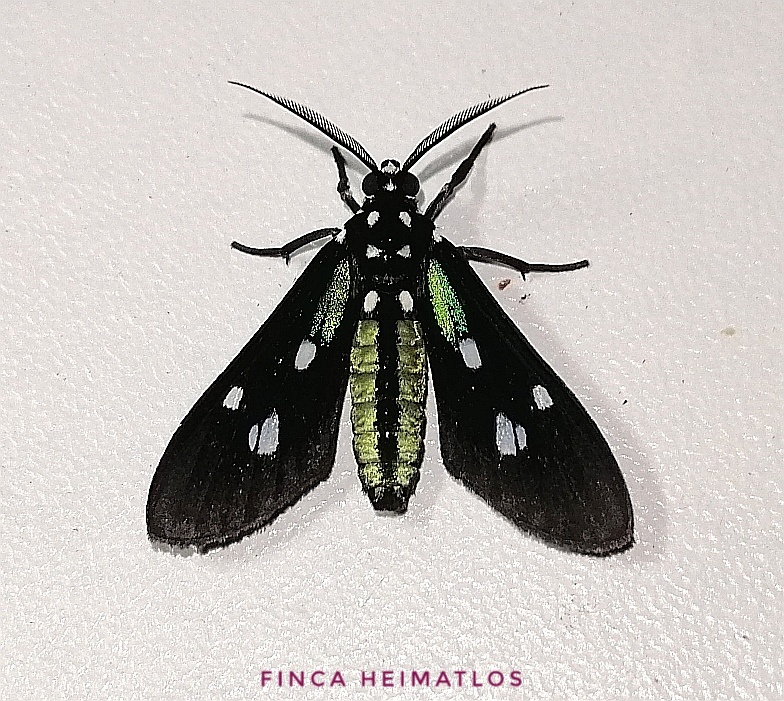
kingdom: Animalia
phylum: Arthropoda
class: Insecta
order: Lepidoptera
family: Erebidae
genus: Leucopleura
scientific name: Leucopleura viridis
